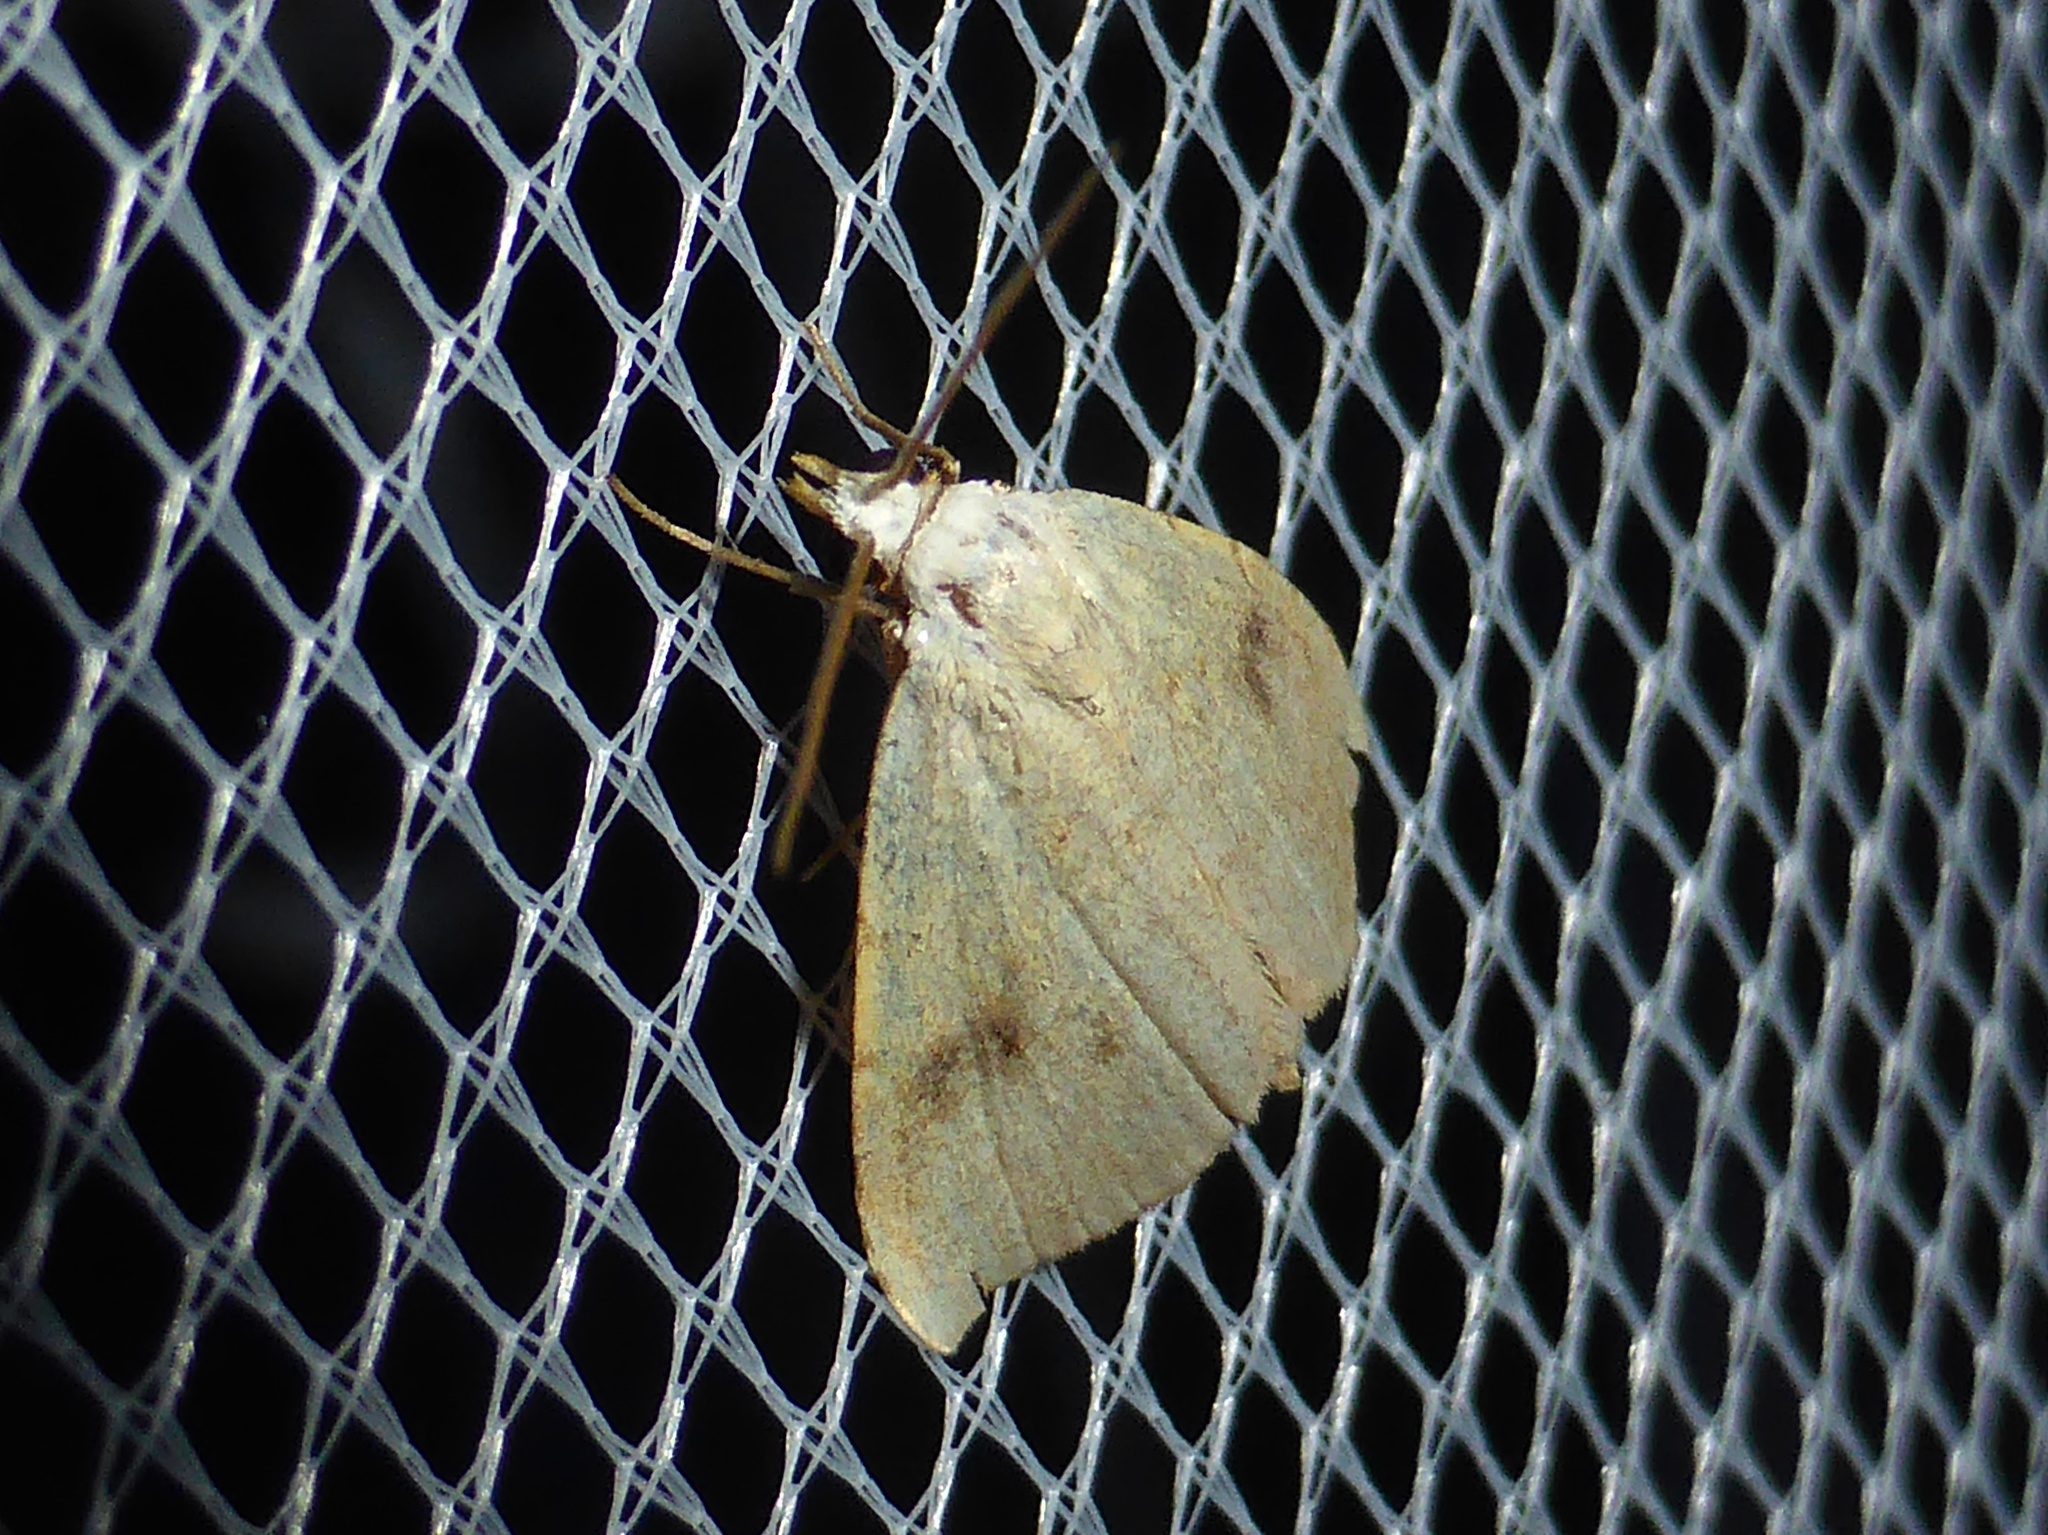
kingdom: Animalia
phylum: Arthropoda
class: Insecta
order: Lepidoptera
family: Erebidae
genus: Rivula
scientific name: Rivula sericealis
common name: Straw dot
